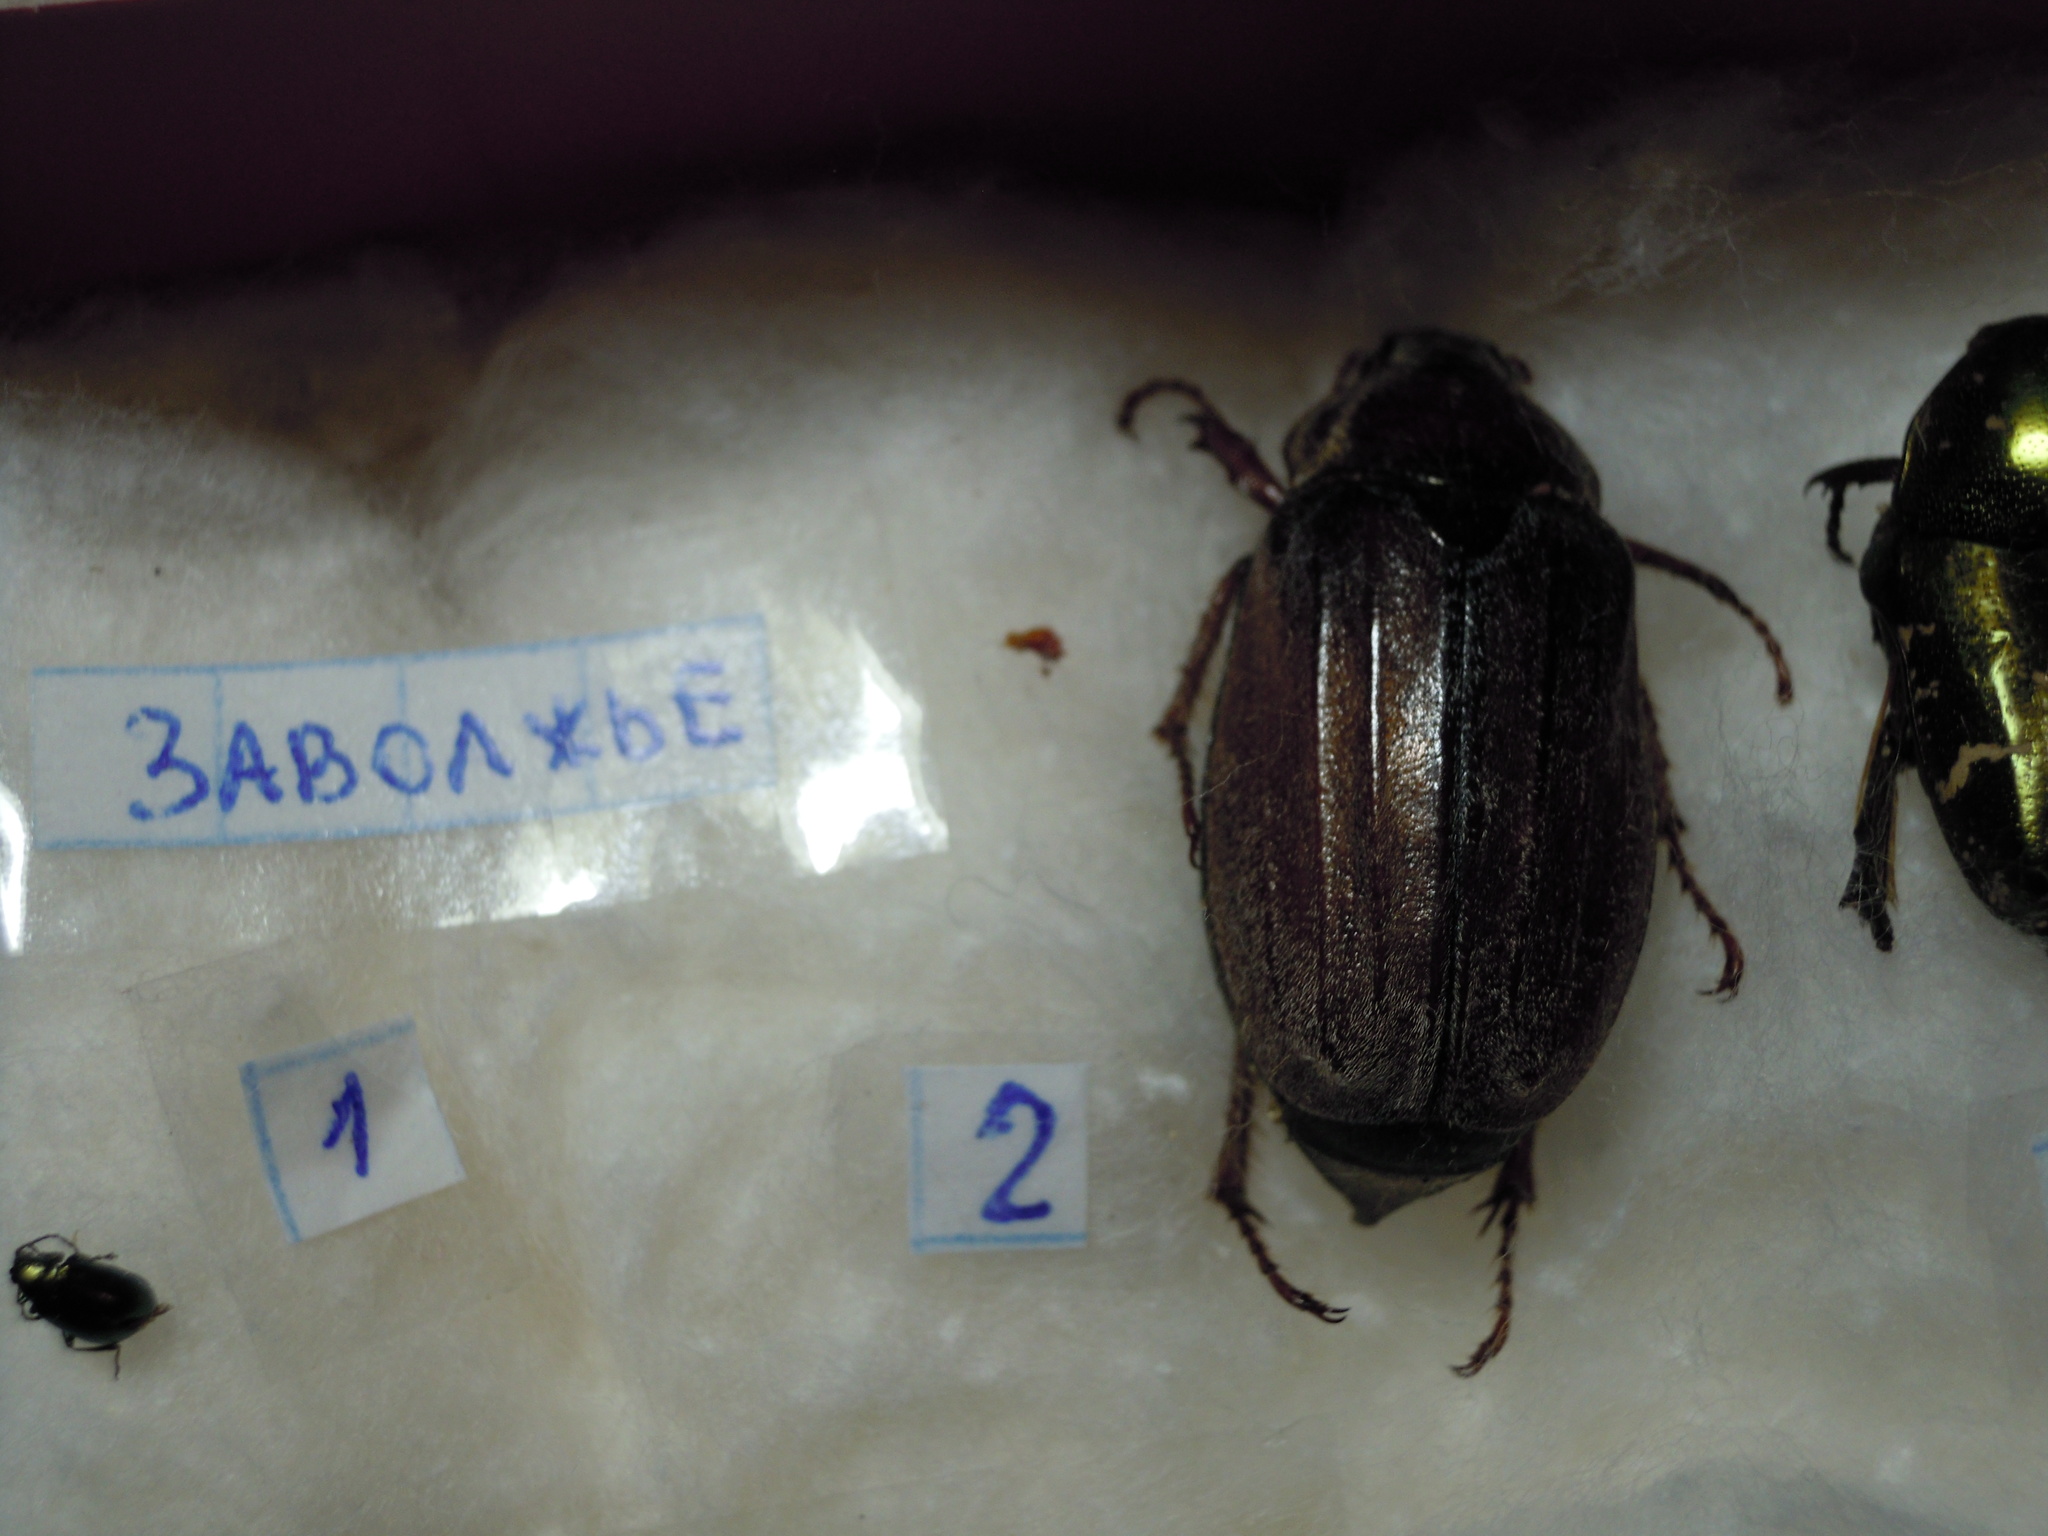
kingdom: Animalia
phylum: Arthropoda
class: Insecta
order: Coleoptera
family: Scarabaeidae
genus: Melolontha
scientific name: Melolontha hippocastani
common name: Chestnut cockchafer
